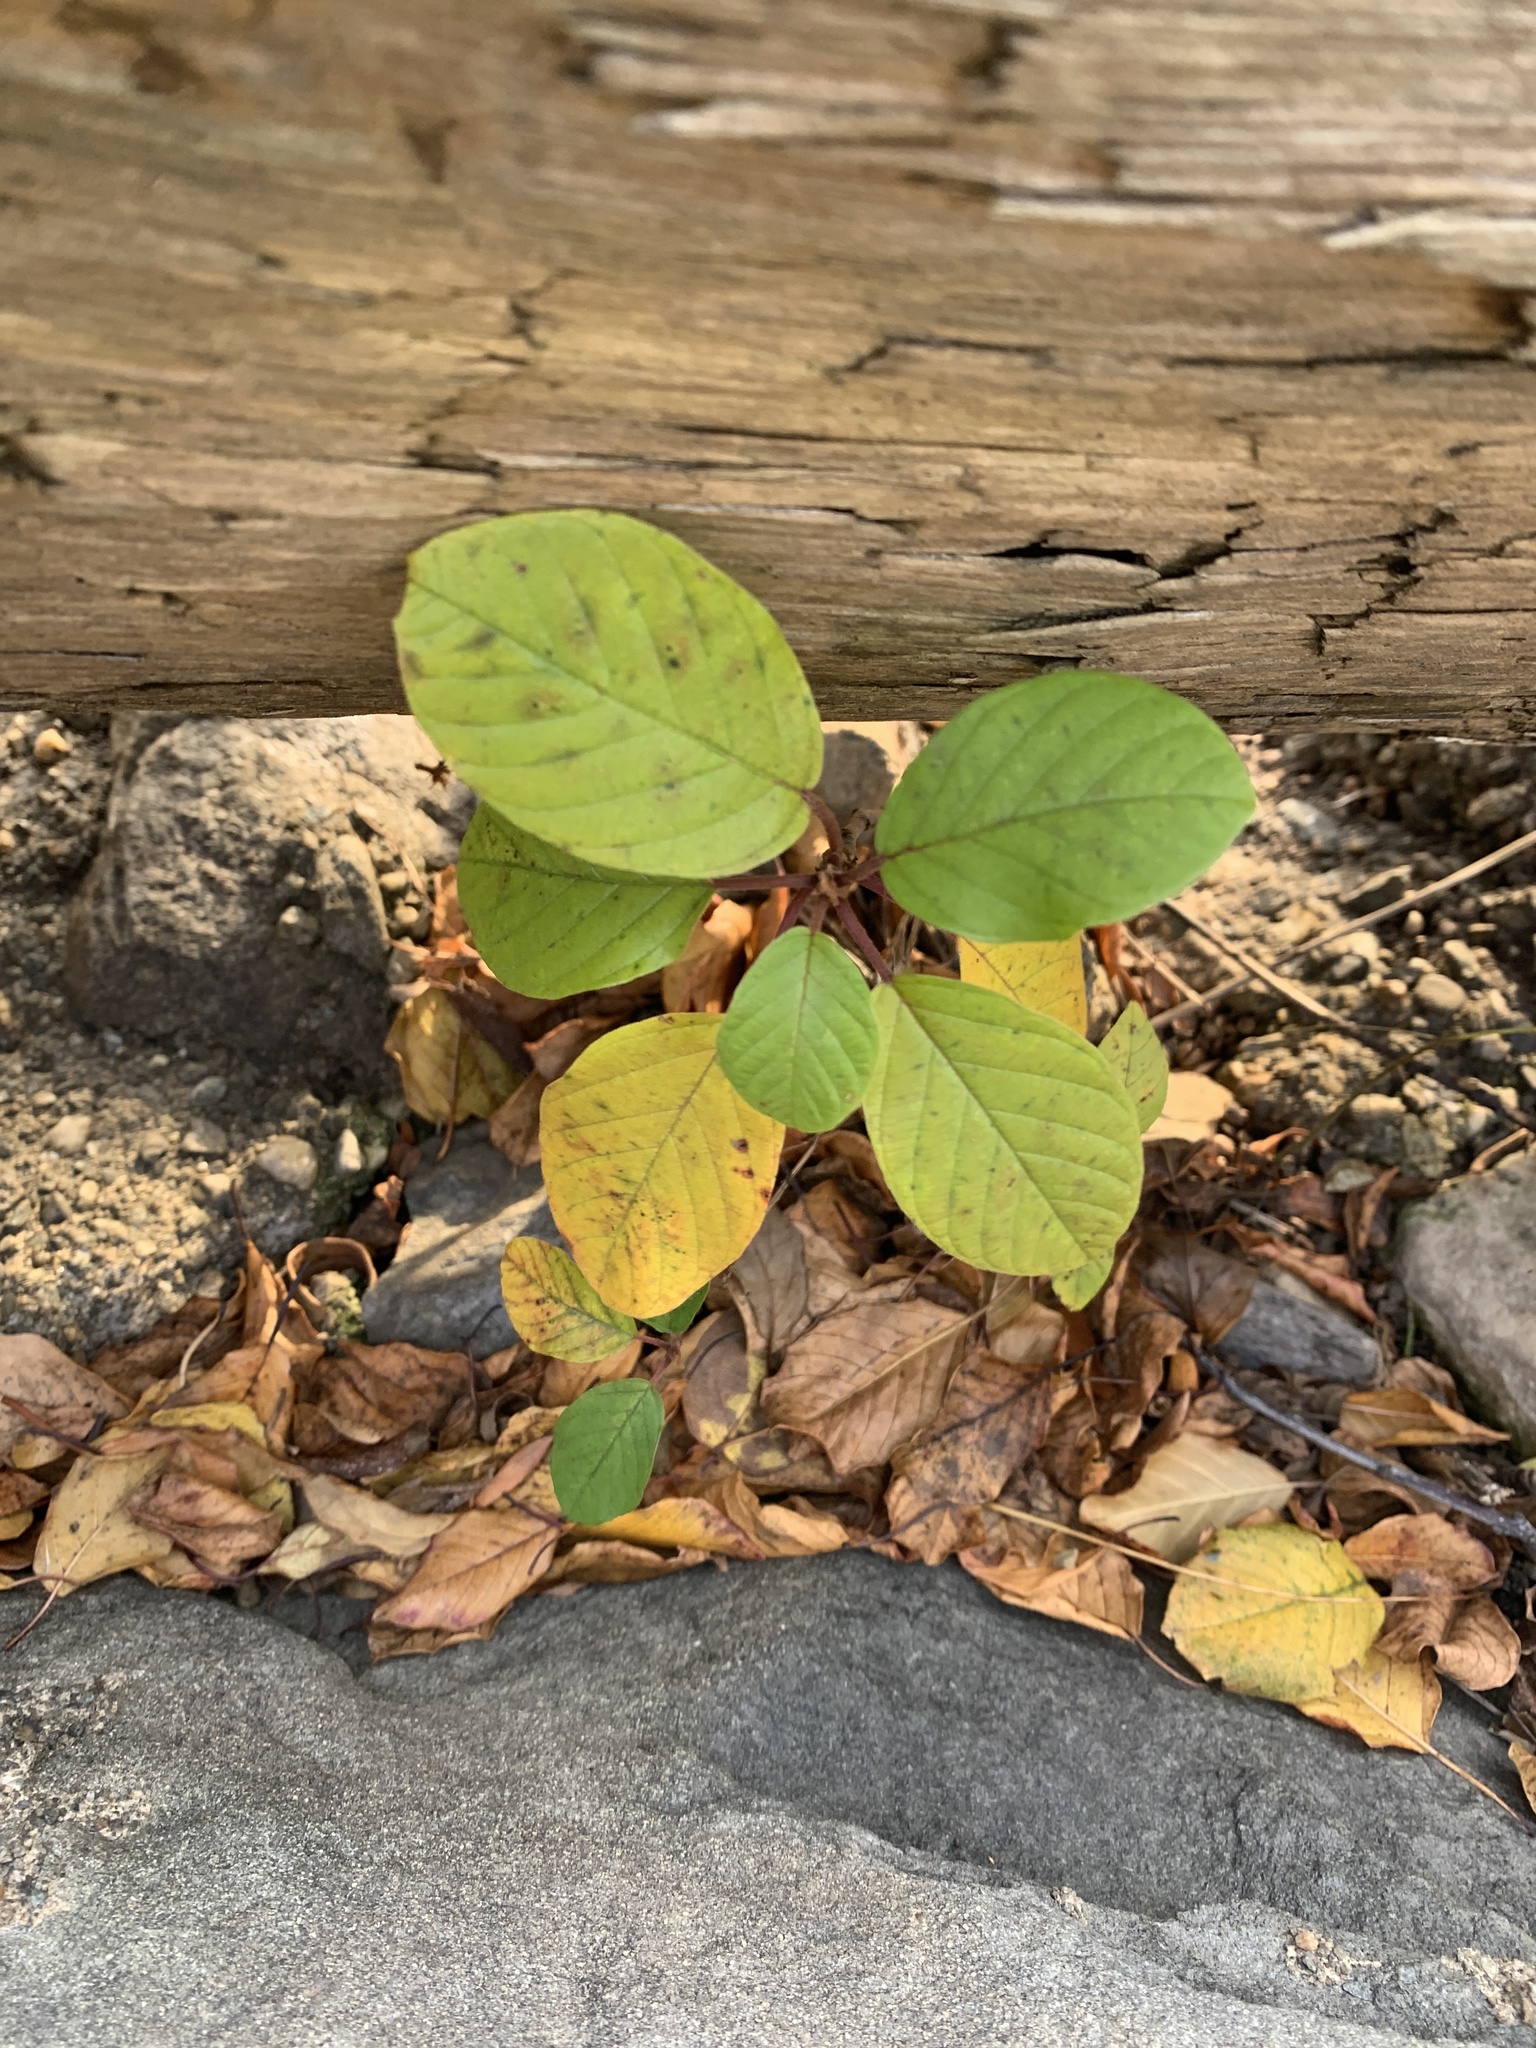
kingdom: Plantae
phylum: Tracheophyta
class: Magnoliopsida
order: Rosales
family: Rhamnaceae
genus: Frangula
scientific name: Frangula alnus
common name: Alder buckthorn
